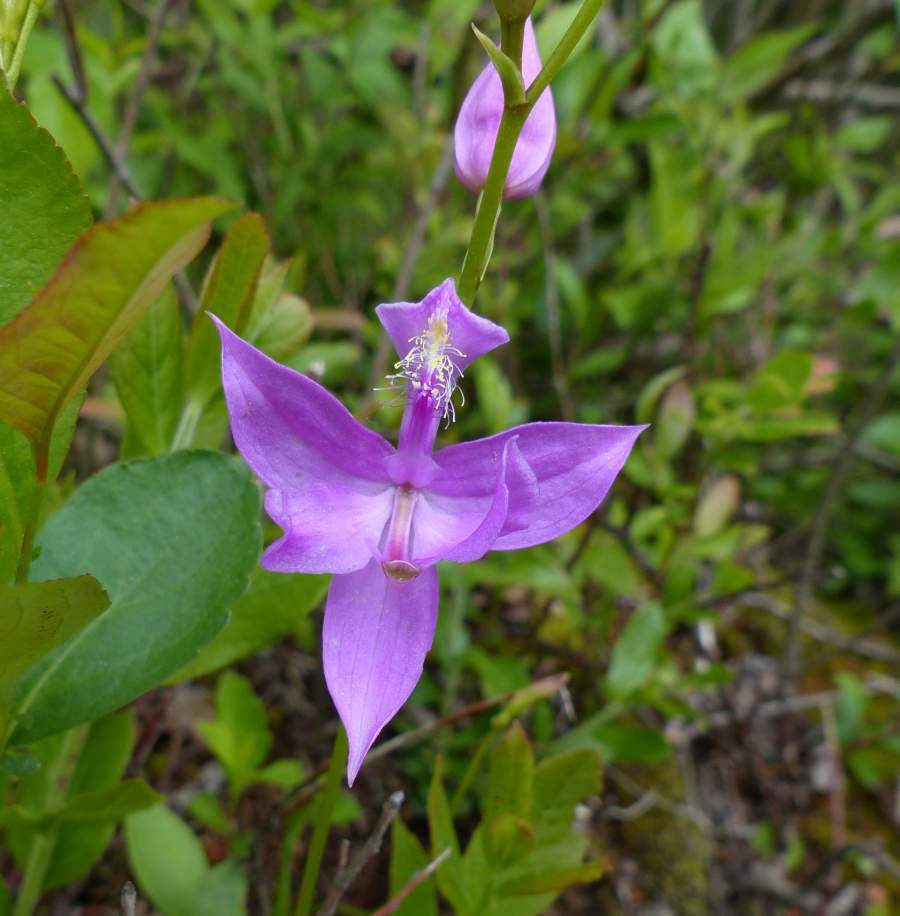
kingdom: Plantae
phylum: Tracheophyta
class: Liliopsida
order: Asparagales
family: Orchidaceae
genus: Calopogon
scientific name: Calopogon tuberosus
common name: Grass-pink
